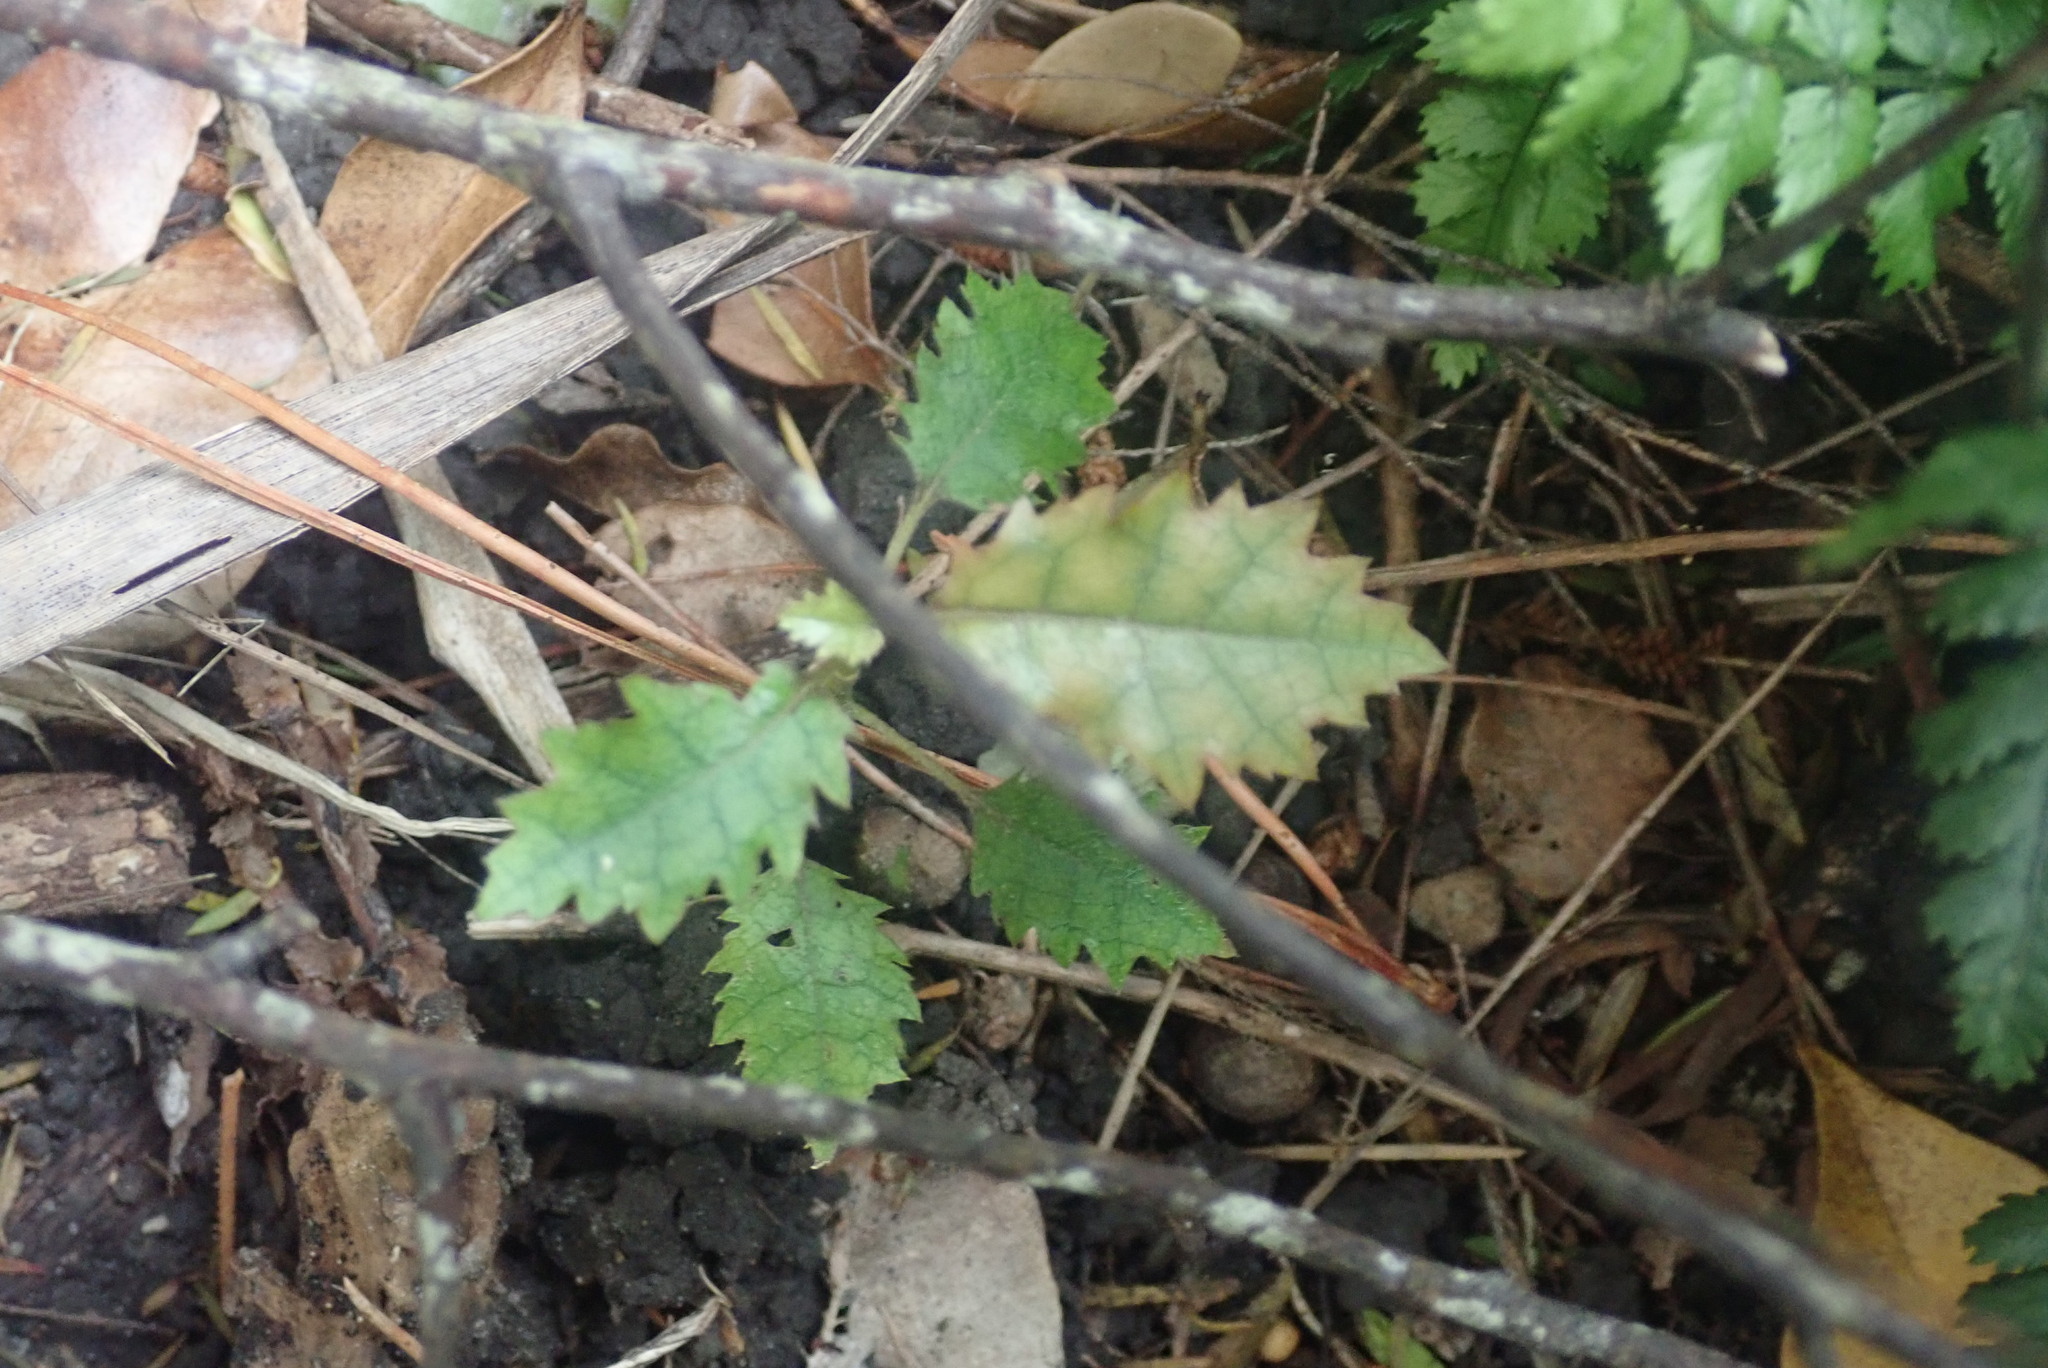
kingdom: Plantae
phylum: Tracheophyta
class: Magnoliopsida
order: Asterales
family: Rousseaceae
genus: Carpodetus
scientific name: Carpodetus serratus
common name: White mapau
